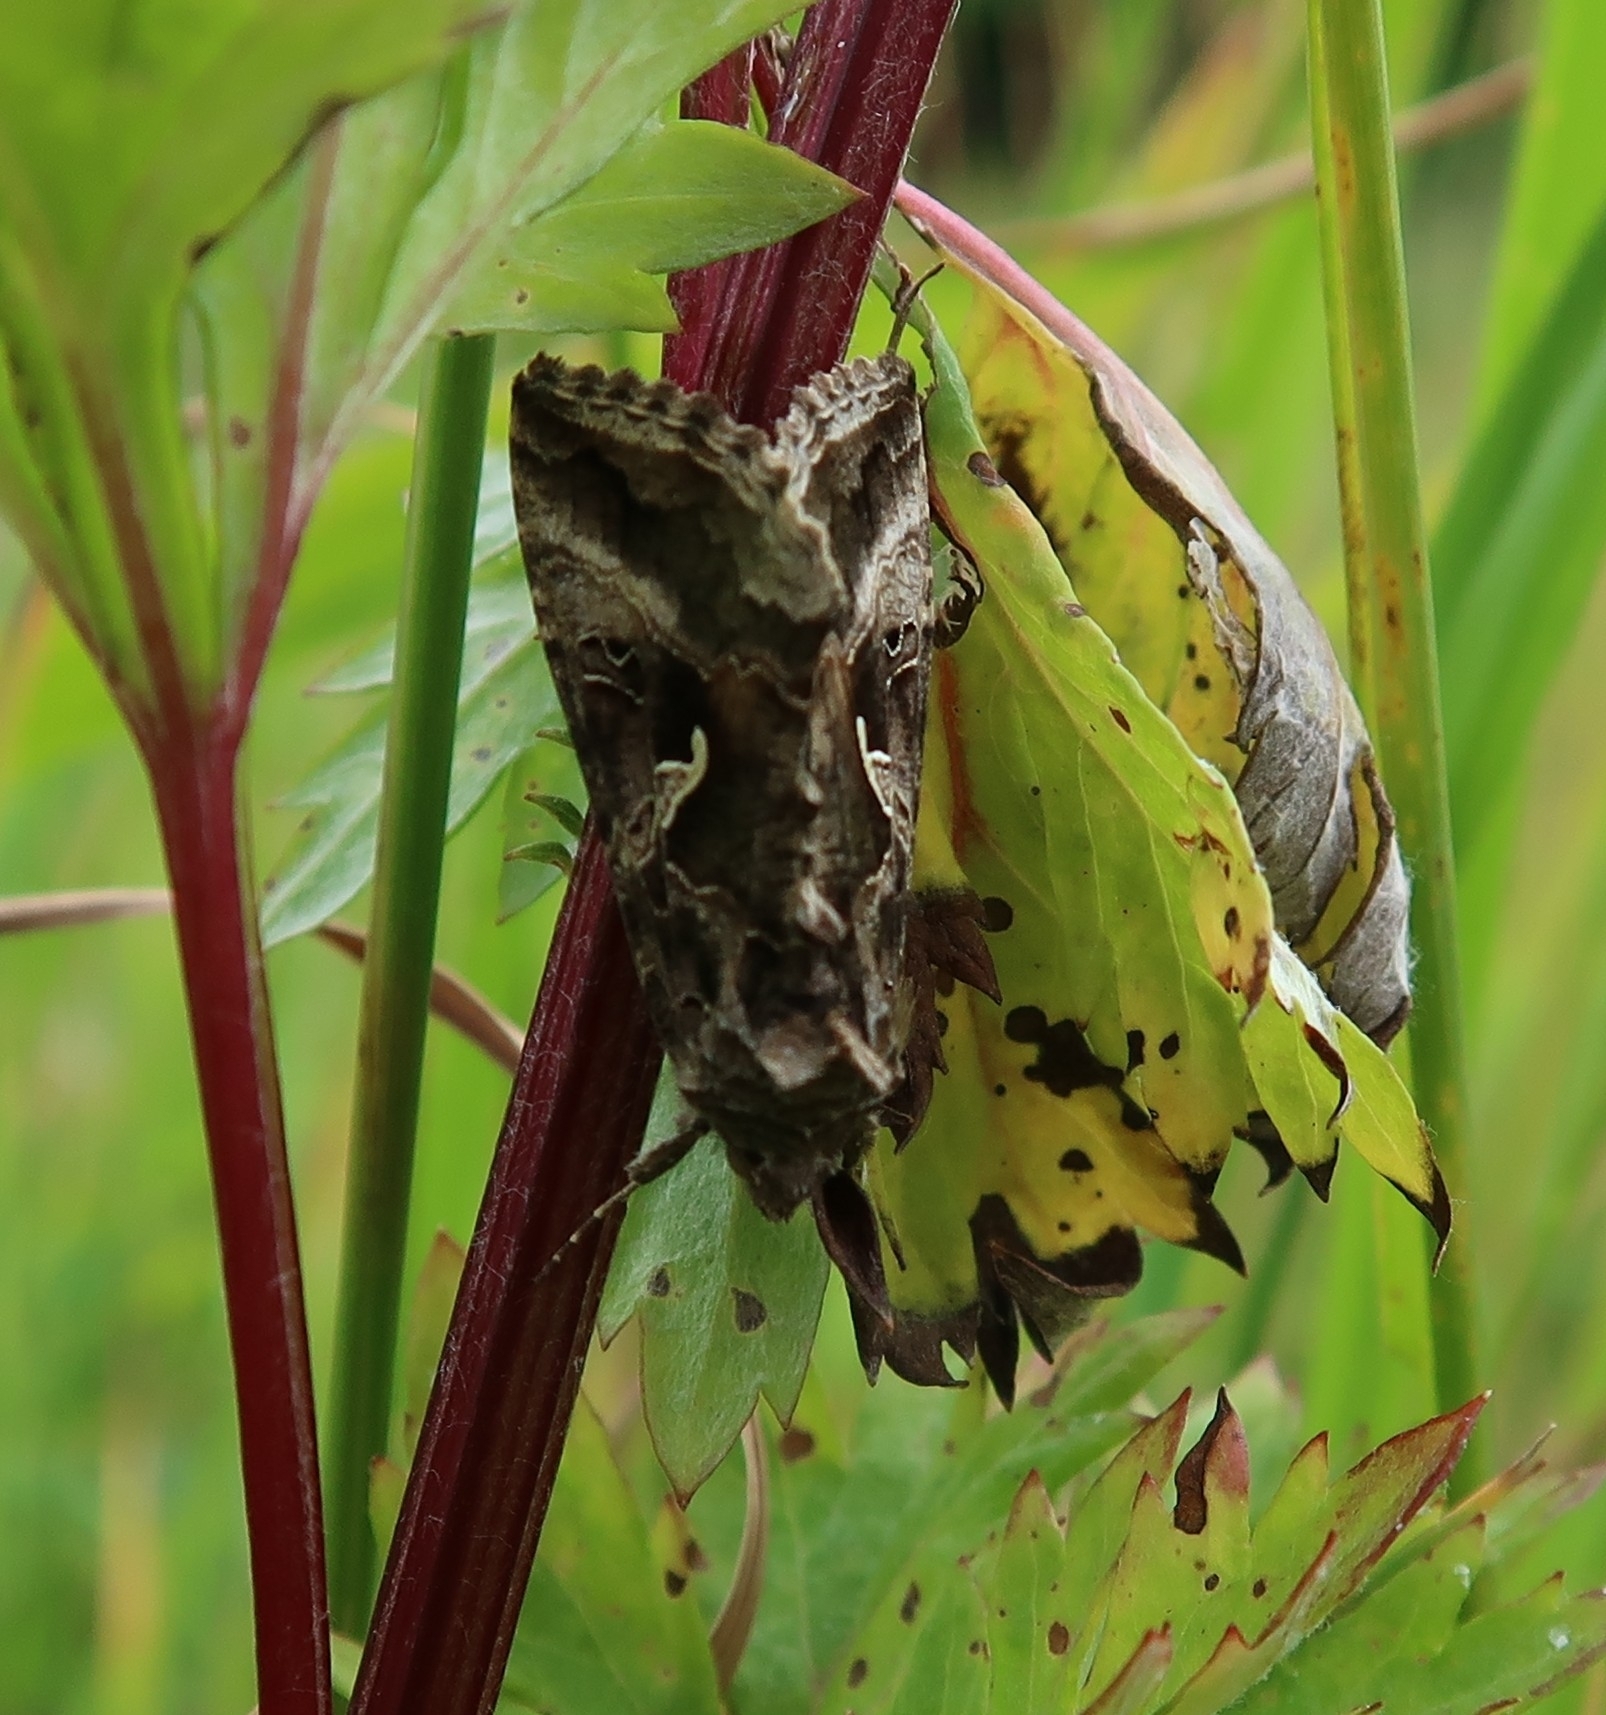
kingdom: Animalia
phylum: Arthropoda
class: Insecta
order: Lepidoptera
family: Noctuidae
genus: Autographa
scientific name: Autographa gamma
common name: Silver y
